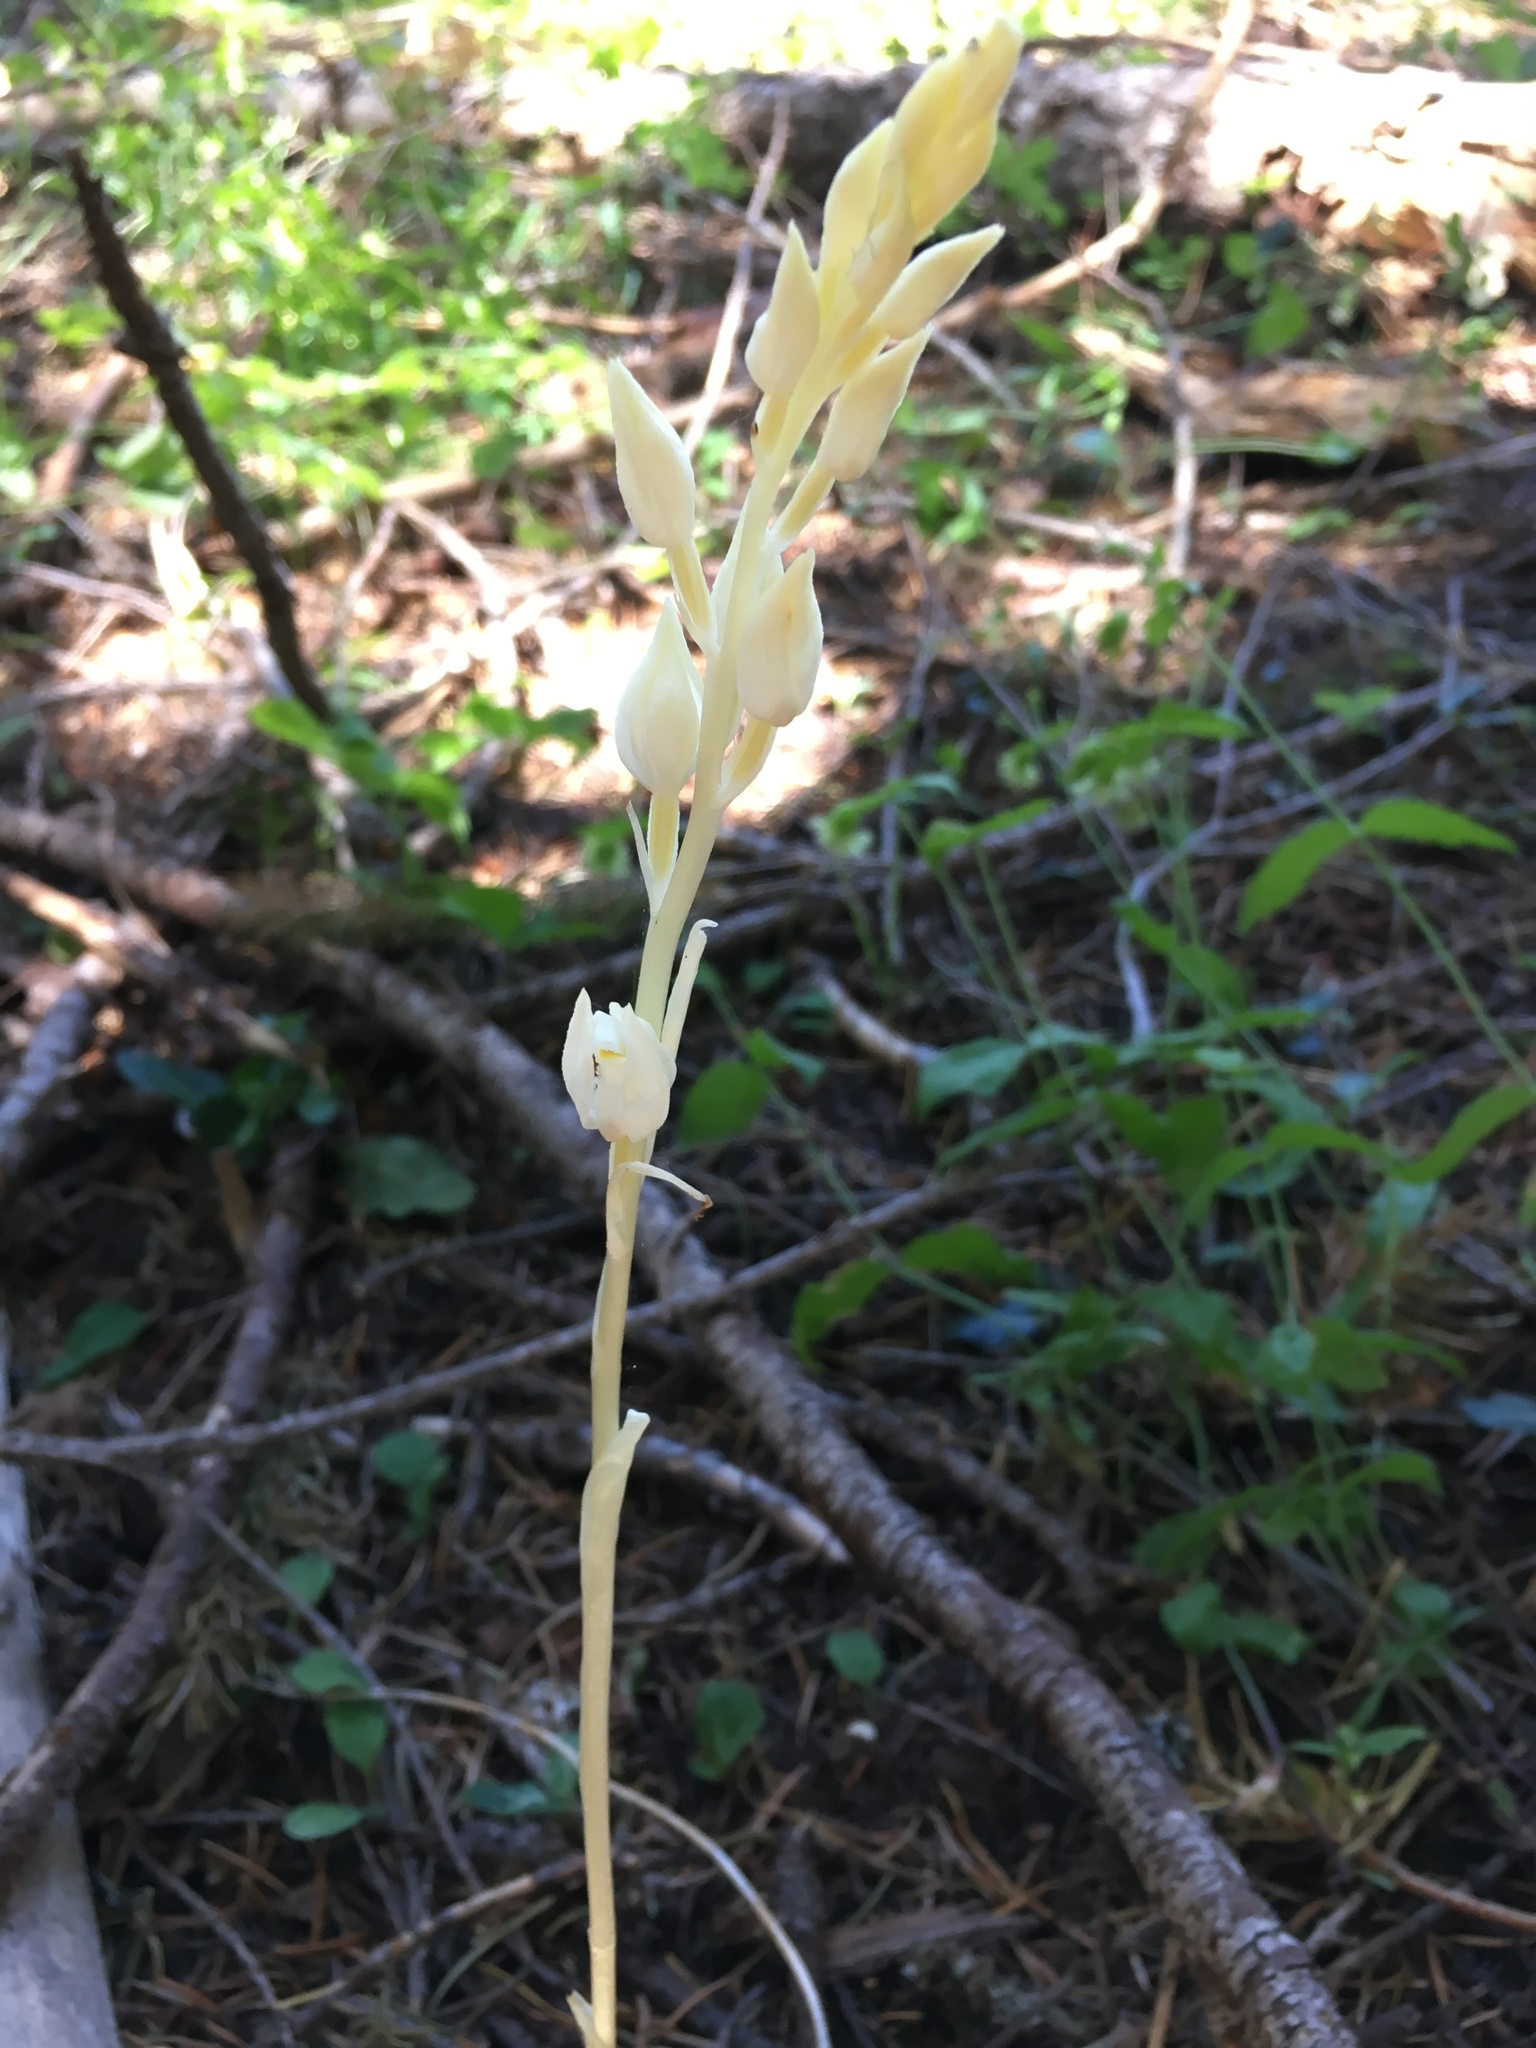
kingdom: Plantae
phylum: Tracheophyta
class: Liliopsida
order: Asparagales
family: Orchidaceae
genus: Cephalanthera
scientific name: Cephalanthera austiniae
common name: Phantom orchid
